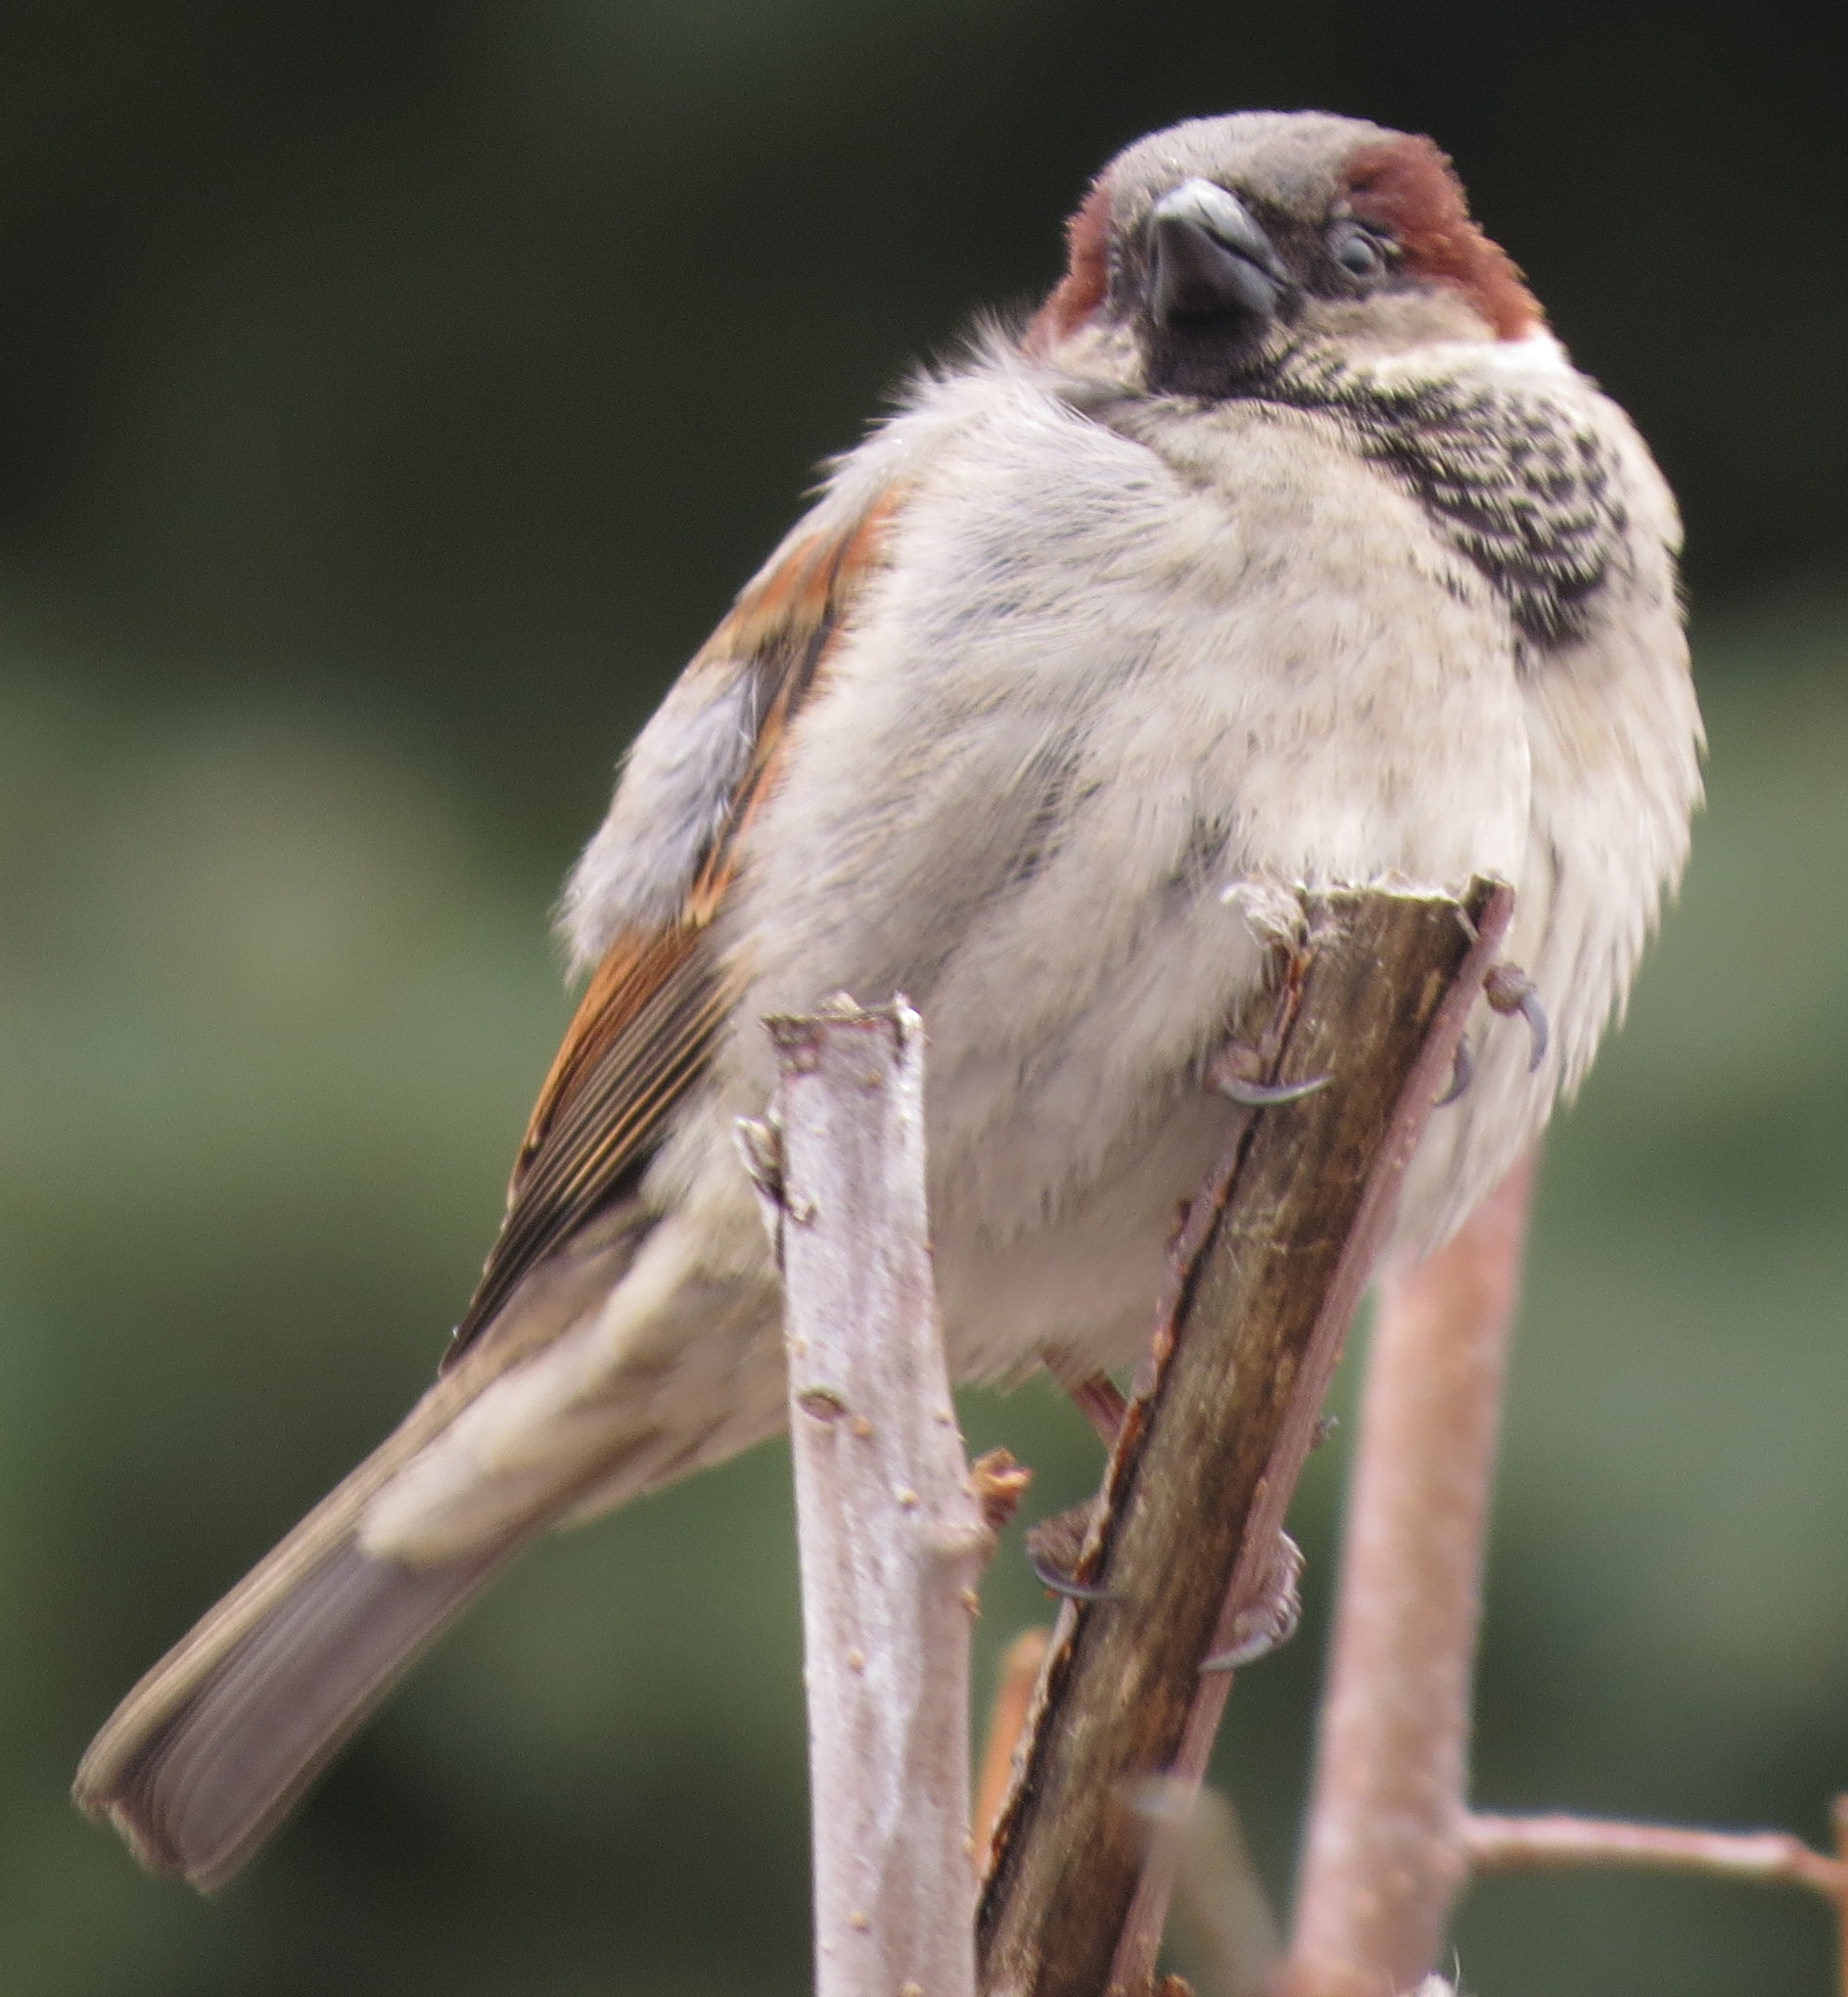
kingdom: Animalia
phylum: Chordata
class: Aves
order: Passeriformes
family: Passeridae
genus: Passer
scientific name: Passer domesticus
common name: House sparrow
